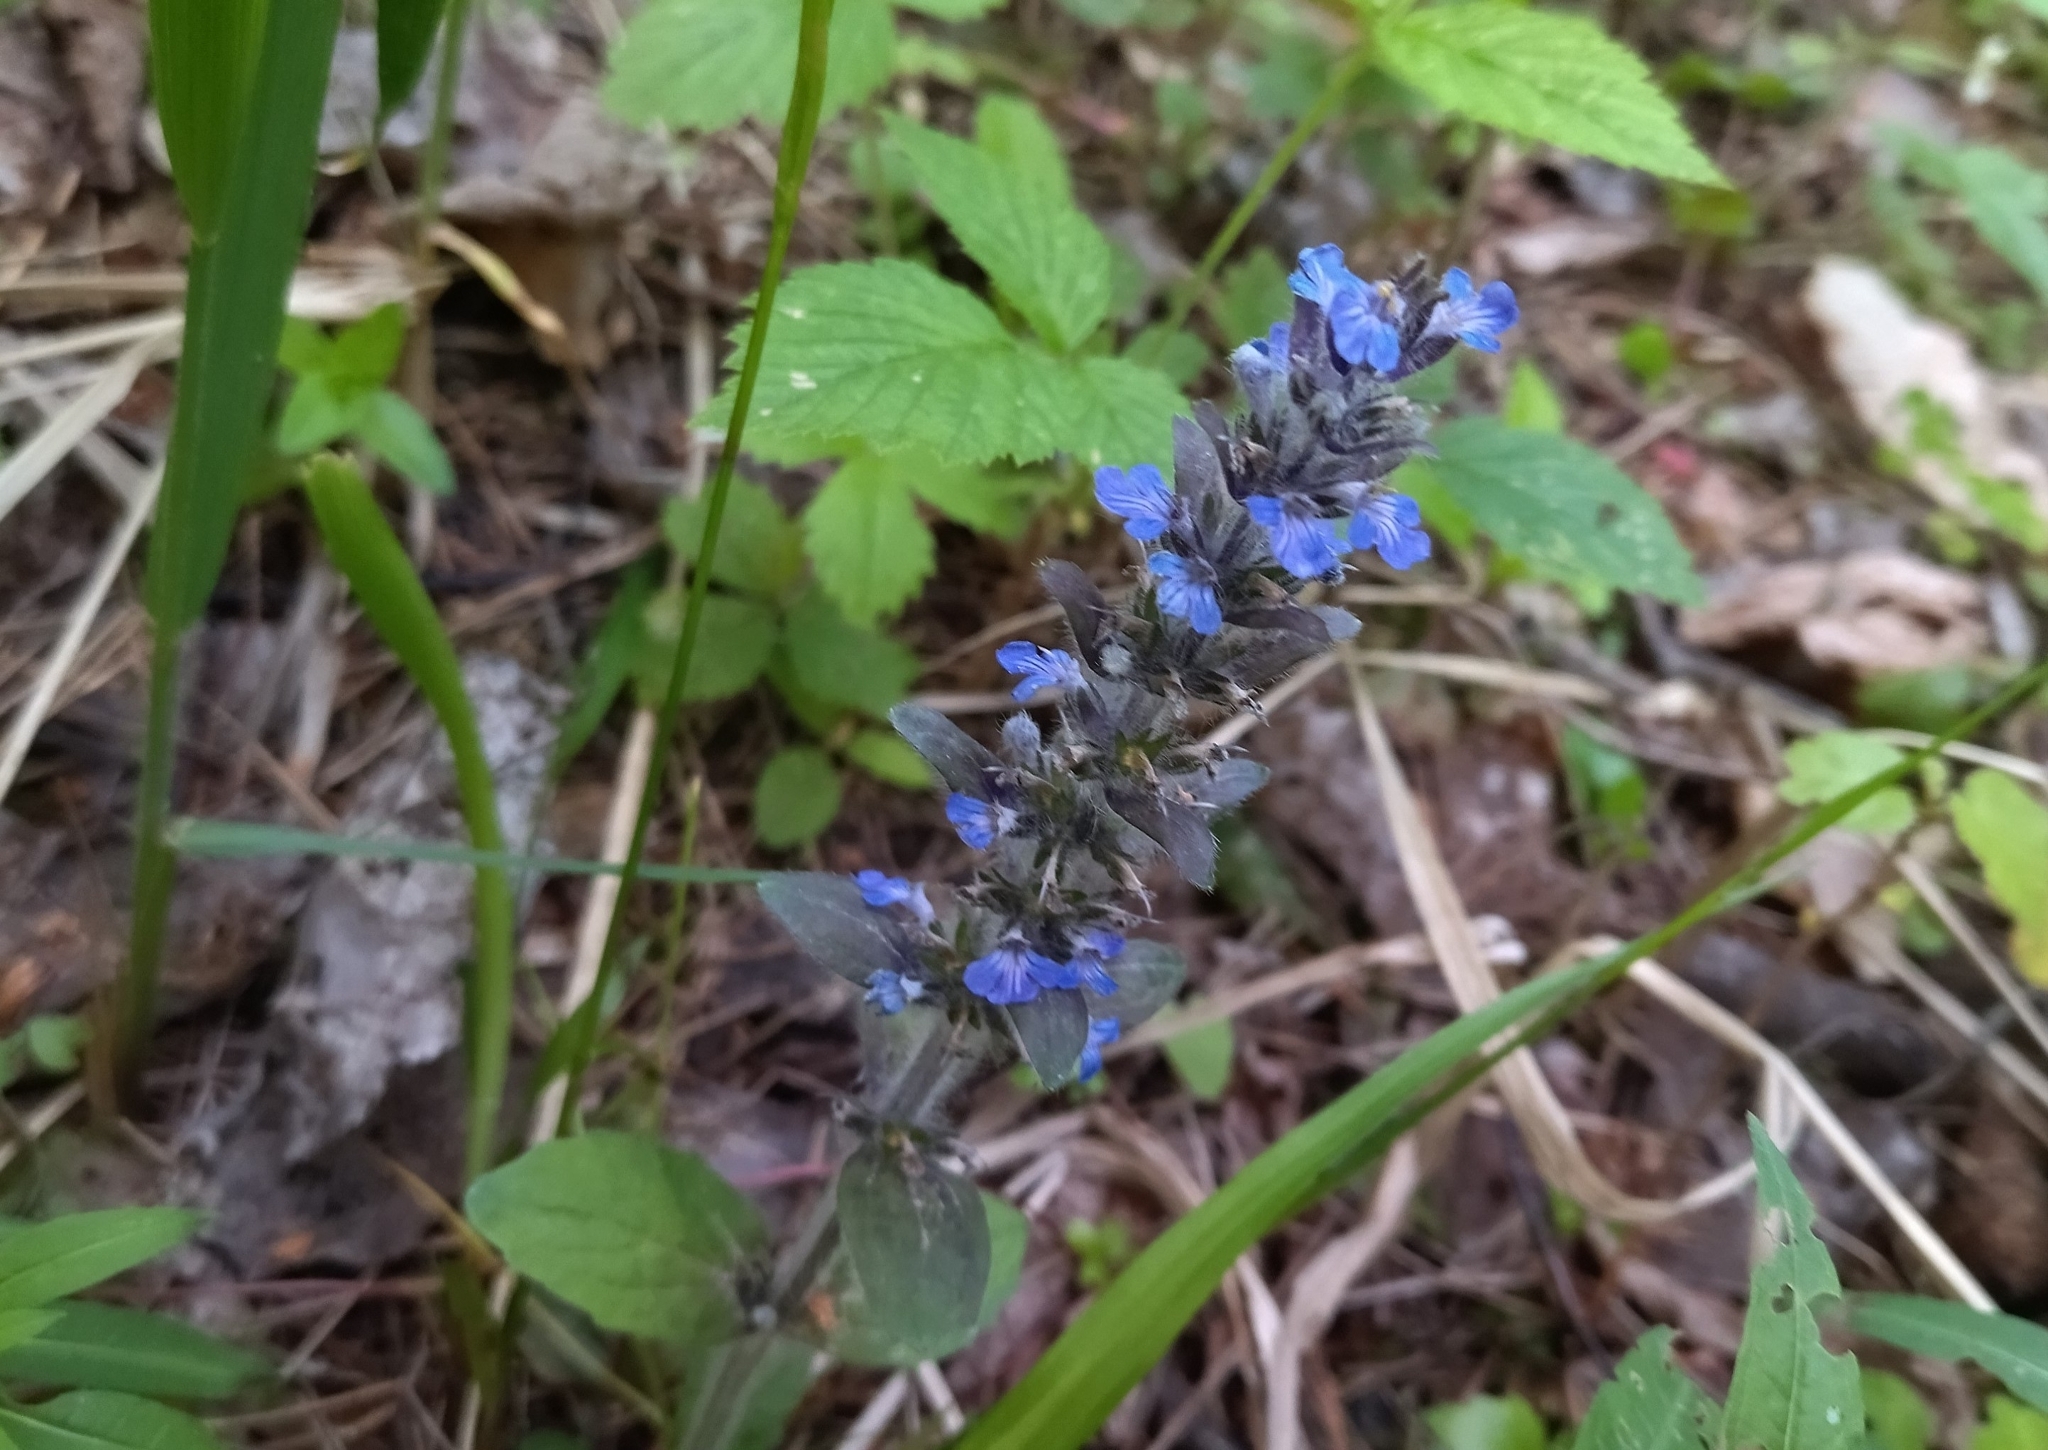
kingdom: Plantae
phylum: Tracheophyta
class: Magnoliopsida
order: Lamiales
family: Lamiaceae
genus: Ajuga
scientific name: Ajuga reptans
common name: Bugle
